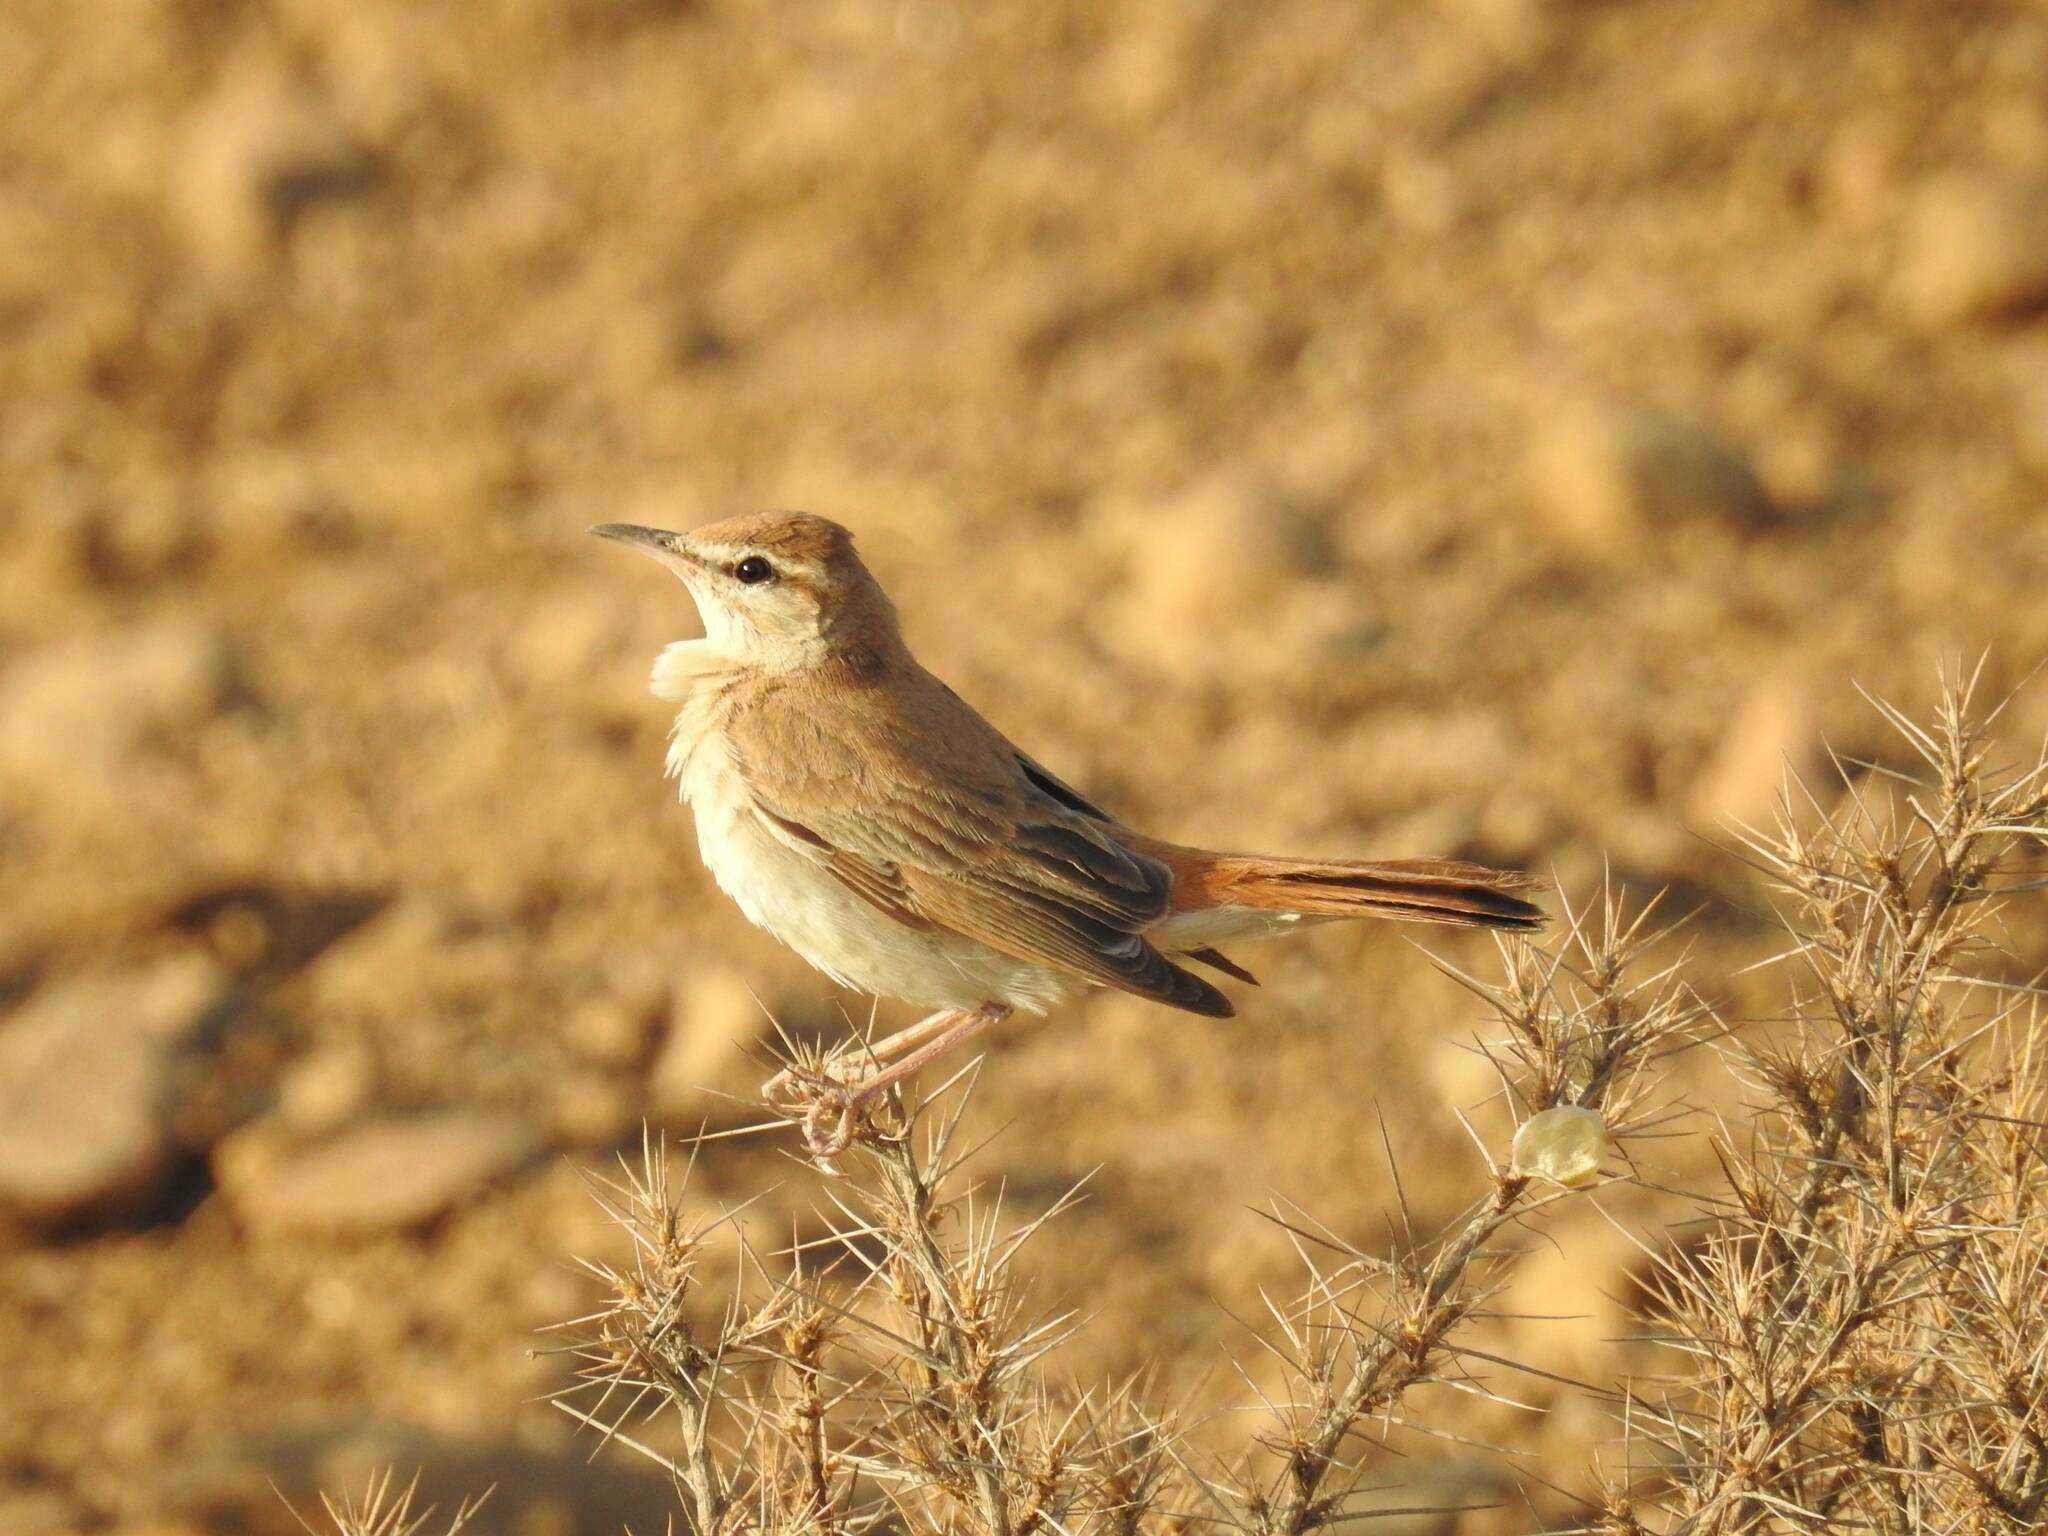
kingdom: Animalia
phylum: Chordata
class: Aves
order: Passeriformes
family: Muscicapidae
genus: Erythropygia
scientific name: Erythropygia galactotes
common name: Rufous-tailed scrub robin
